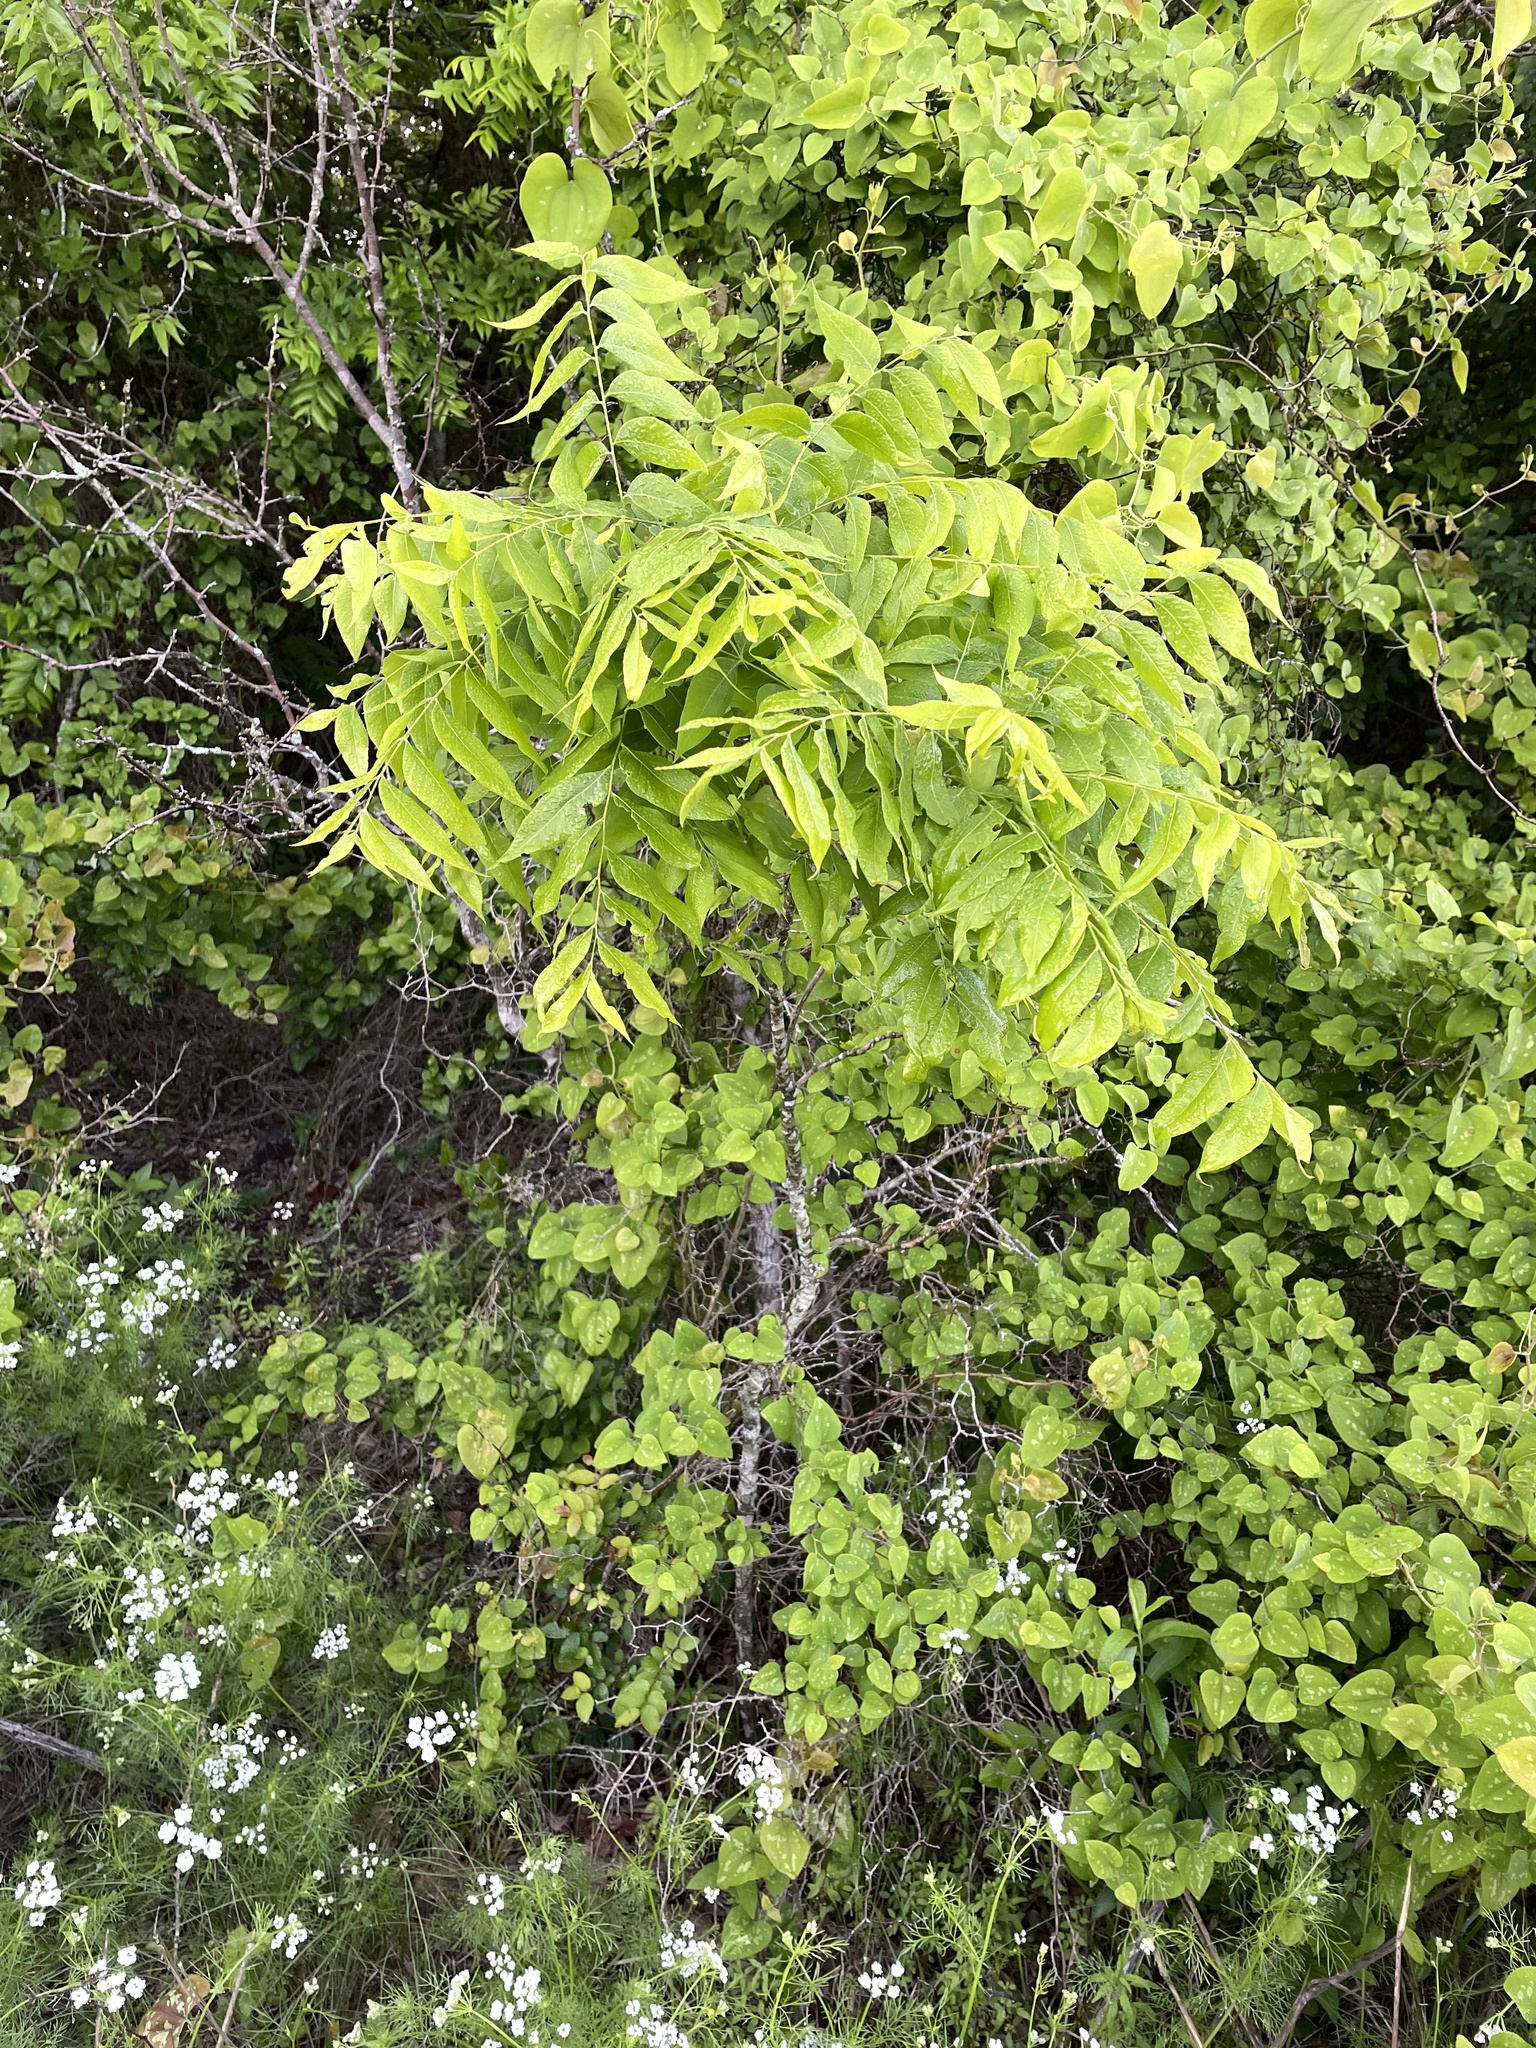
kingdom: Plantae
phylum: Tracheophyta
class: Magnoliopsida
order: Sapindales
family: Sapindaceae
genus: Sapindus
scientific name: Sapindus drummondii
